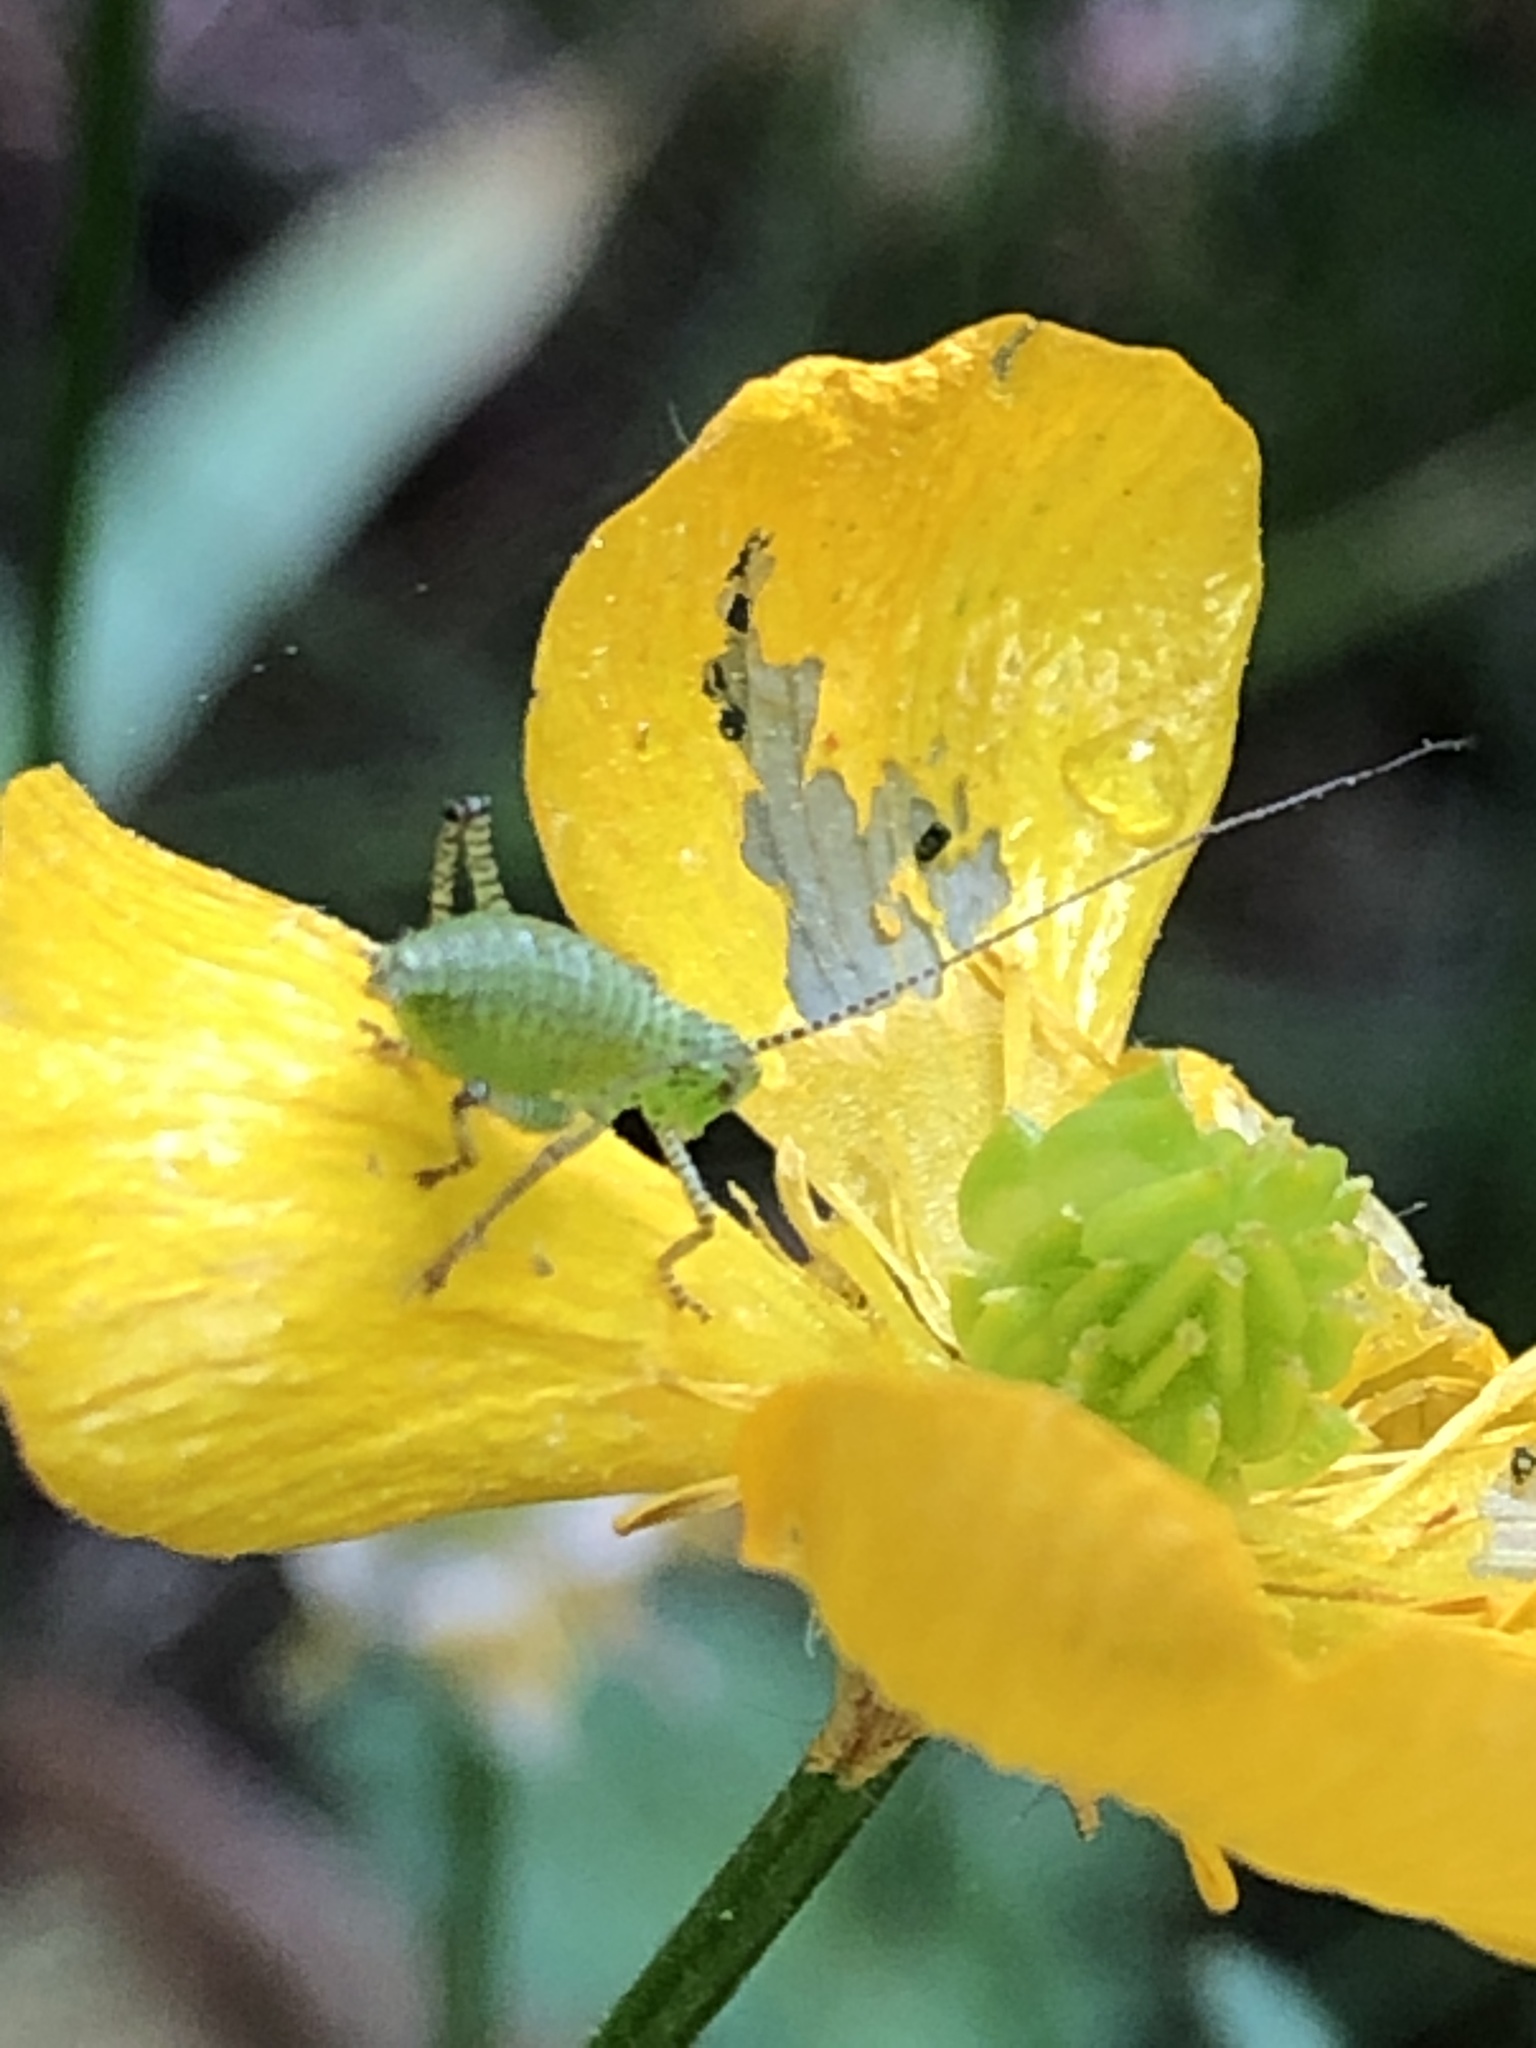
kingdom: Animalia
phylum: Arthropoda
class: Insecta
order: Orthoptera
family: Tettigoniidae
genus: Leptophyes
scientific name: Leptophyes punctatissima
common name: Speckled bush-cricket
